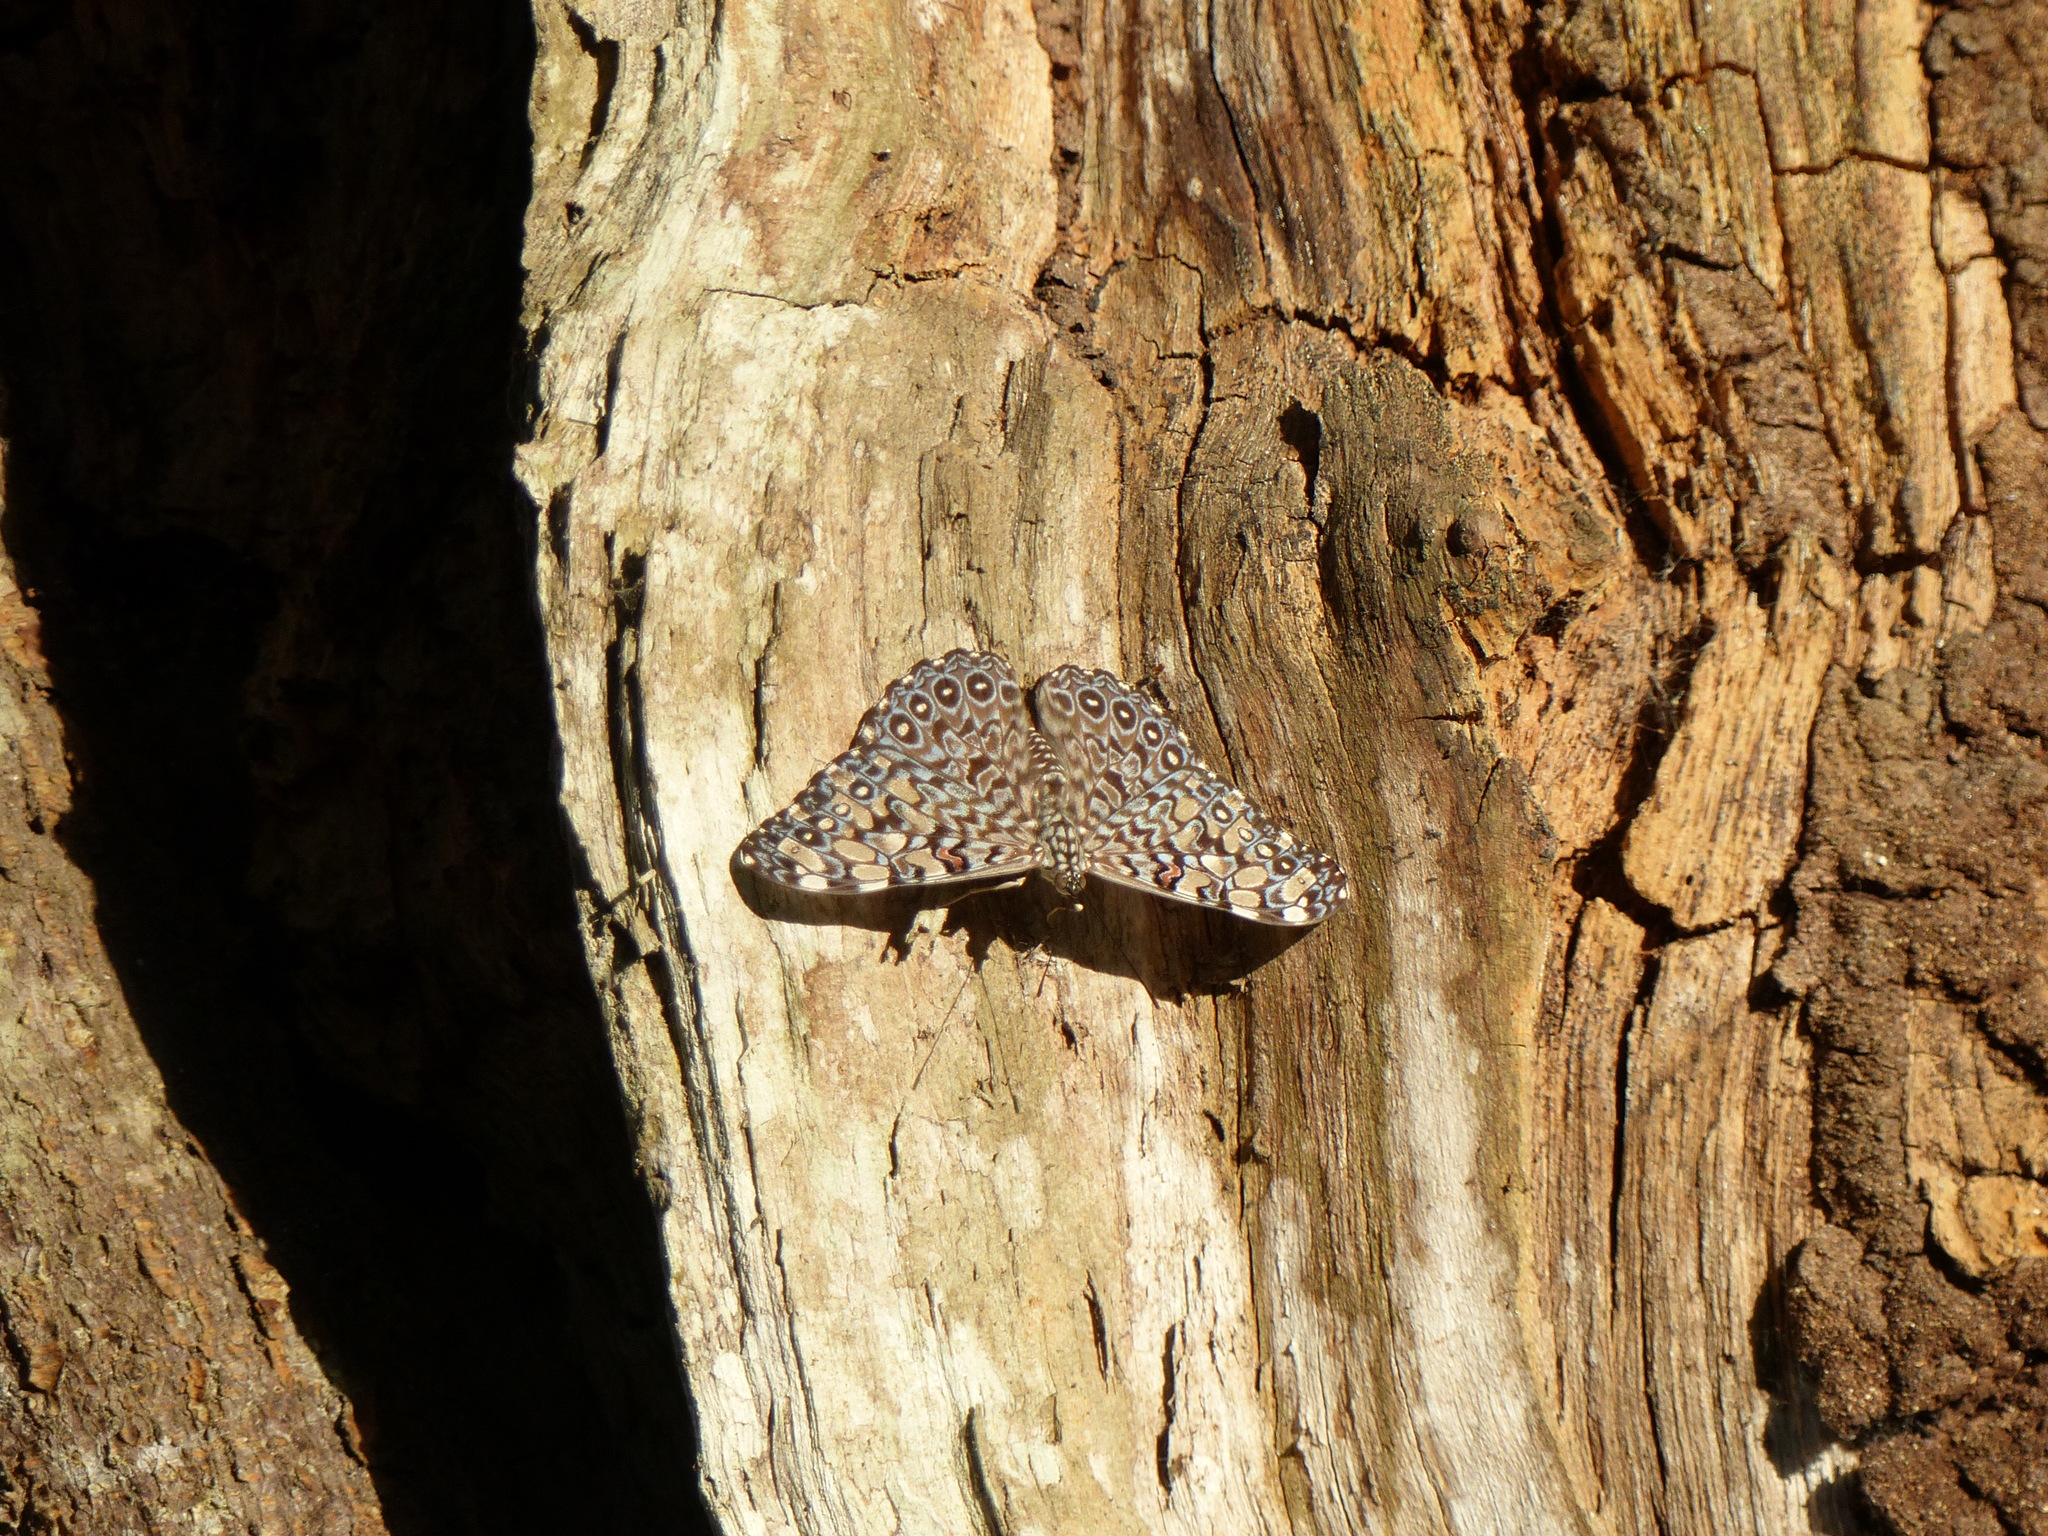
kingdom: Animalia
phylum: Arthropoda
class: Insecta
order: Lepidoptera
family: Nymphalidae
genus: Hamadryas
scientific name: Hamadryas feronia
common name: Variable cracker
